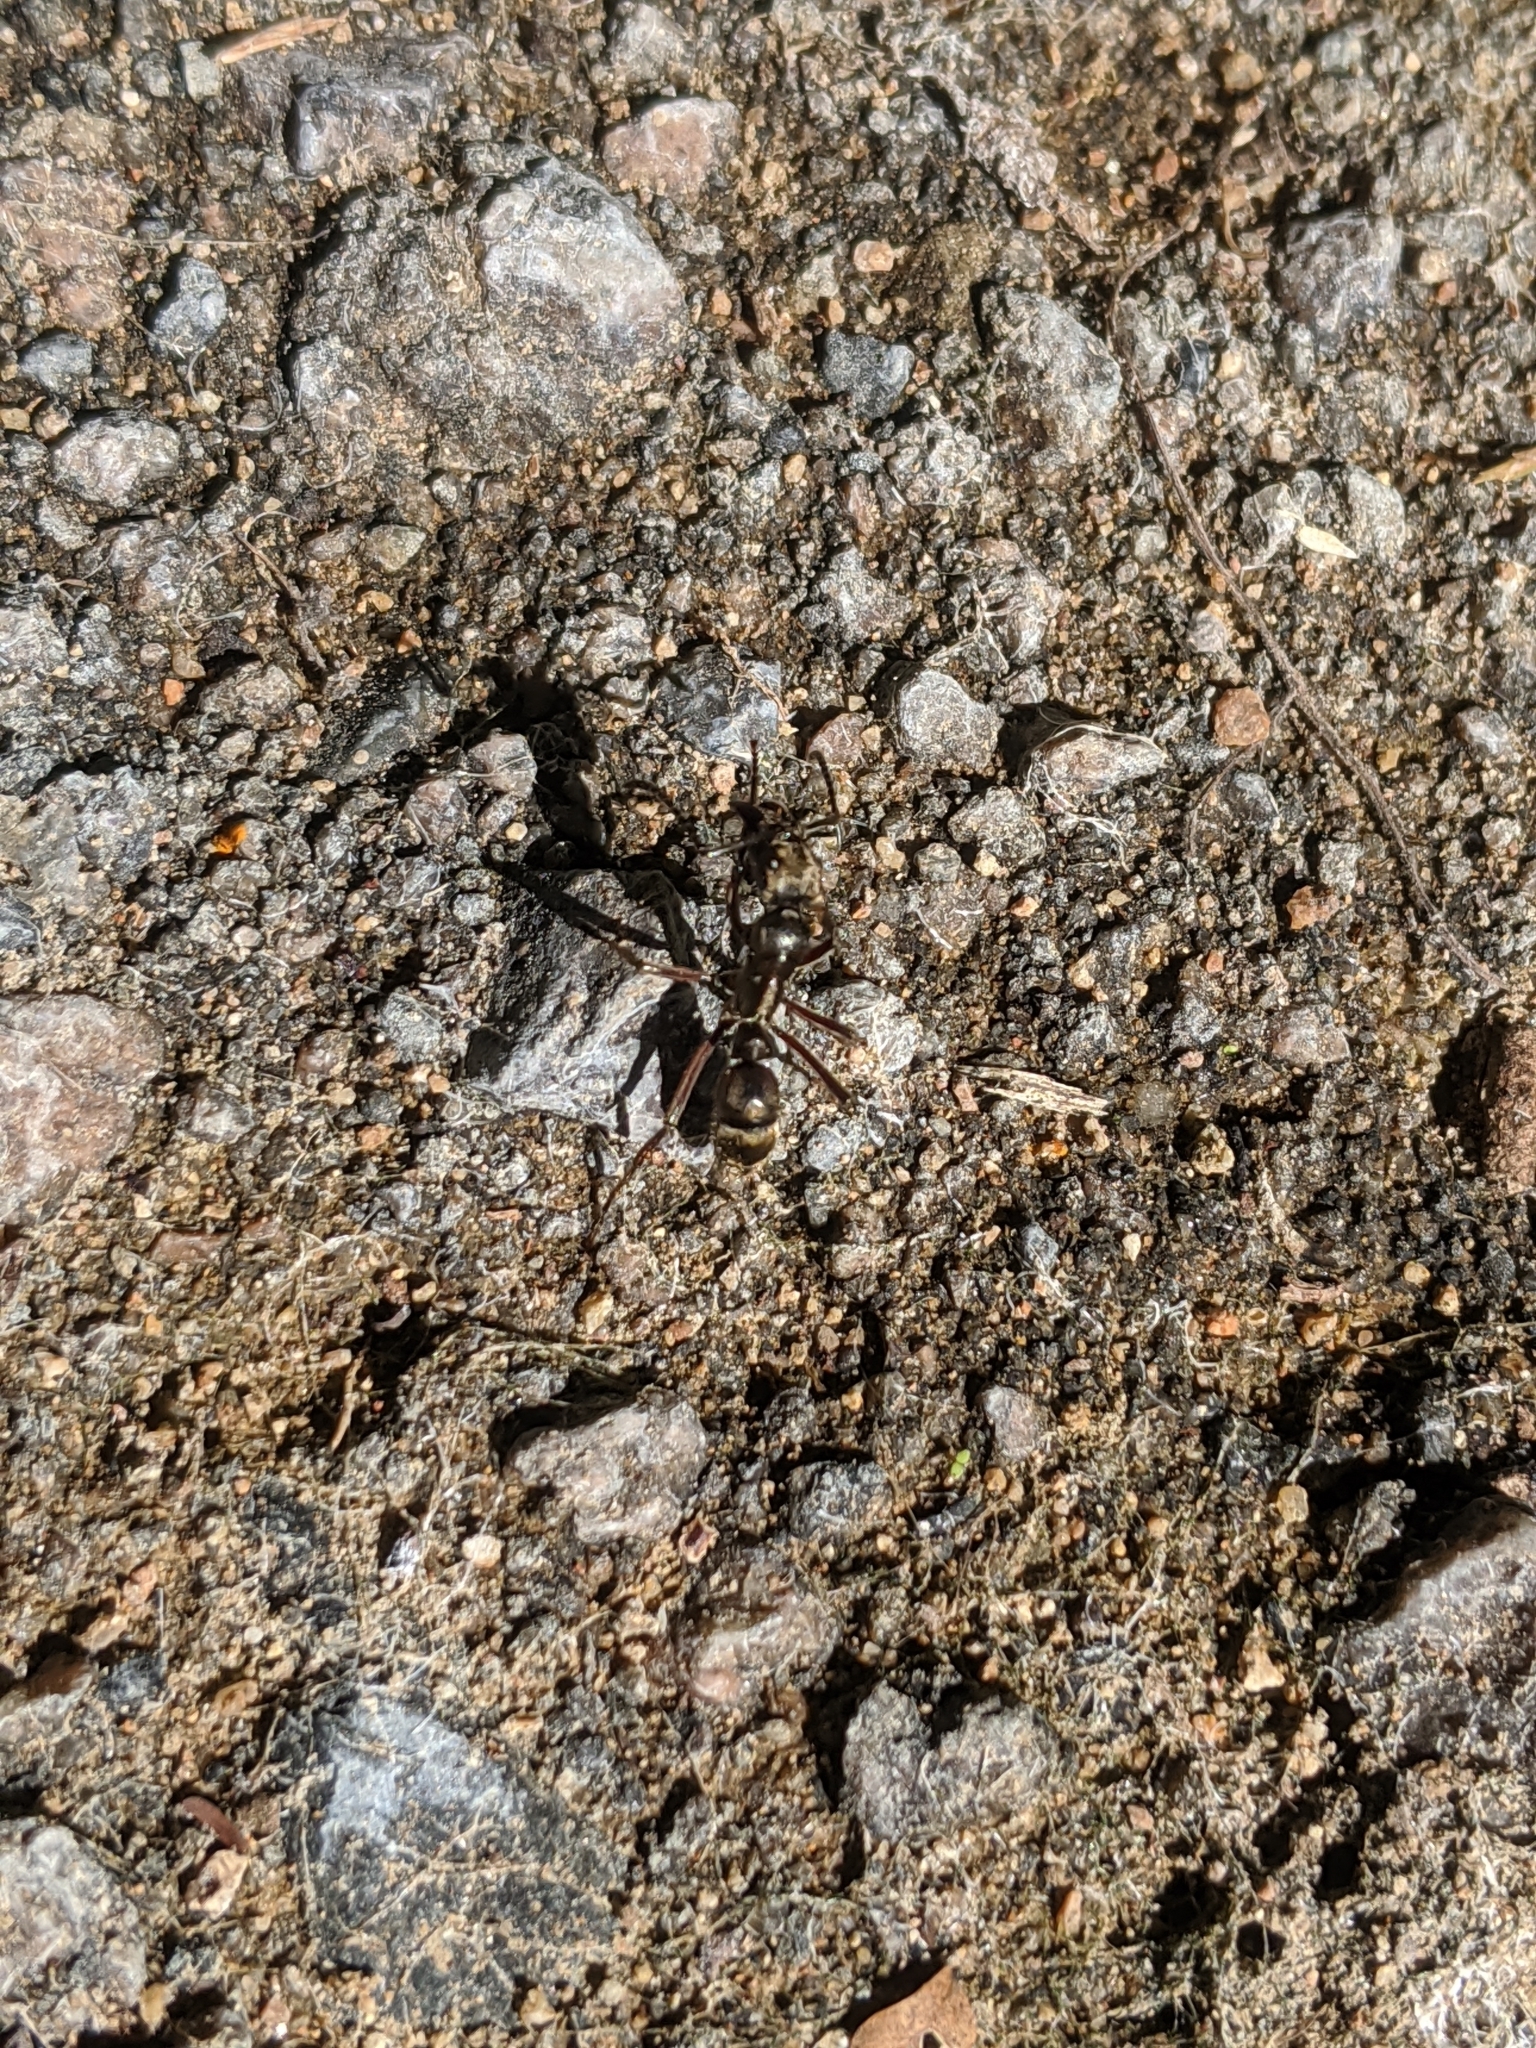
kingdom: Animalia
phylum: Arthropoda
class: Insecta
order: Hymenoptera
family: Formicidae
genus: Pachycondyla
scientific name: Pachycondyla villosa
